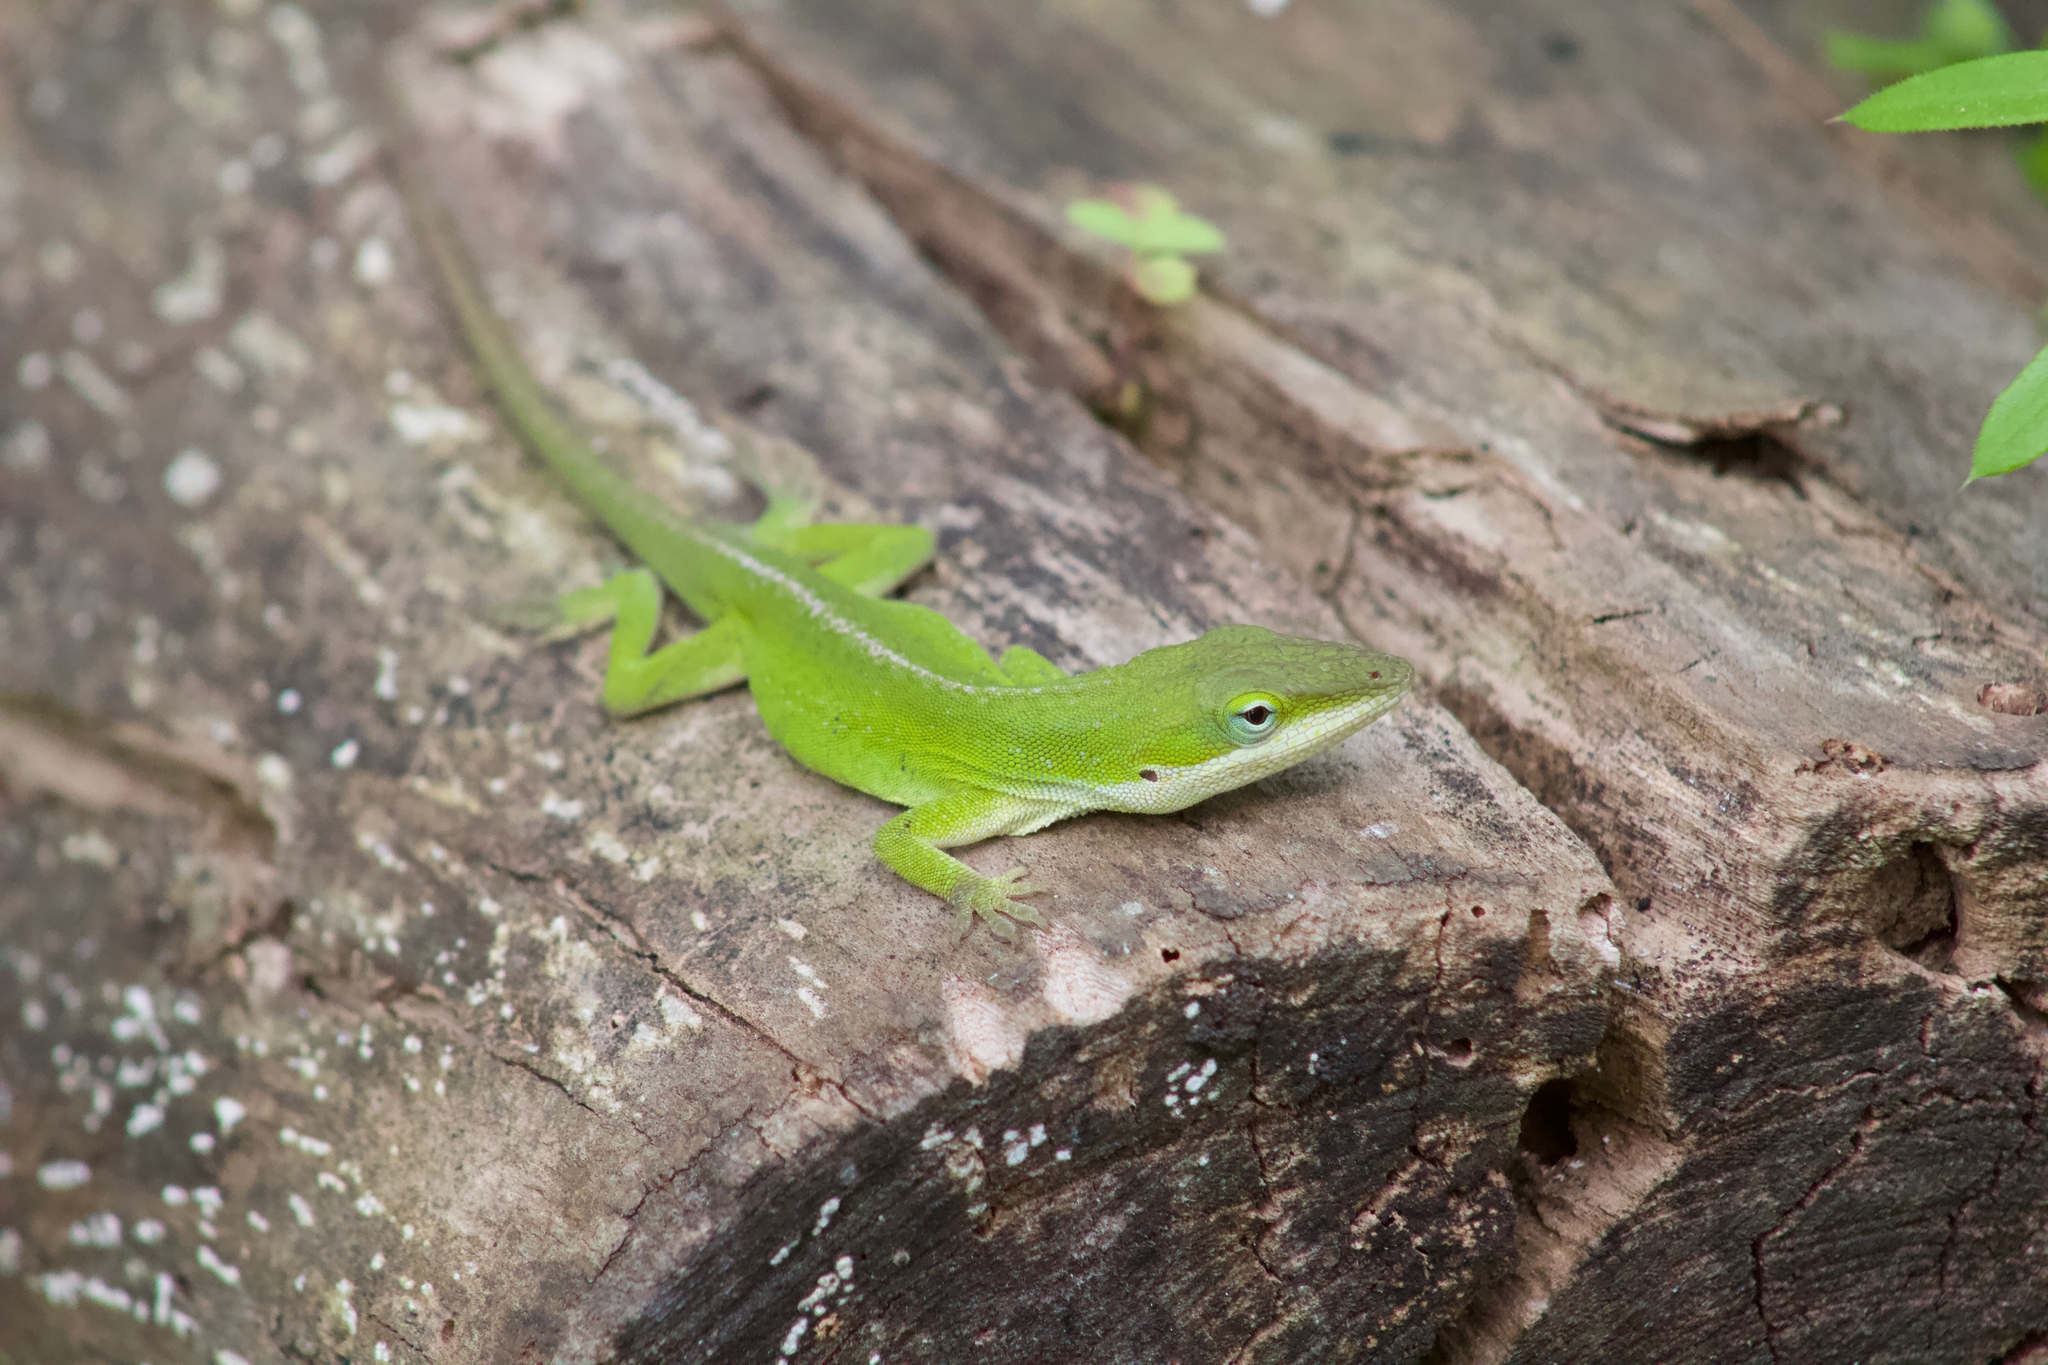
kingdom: Animalia
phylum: Chordata
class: Squamata
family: Dactyloidae
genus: Anolis
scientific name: Anolis carolinensis
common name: Green anole
